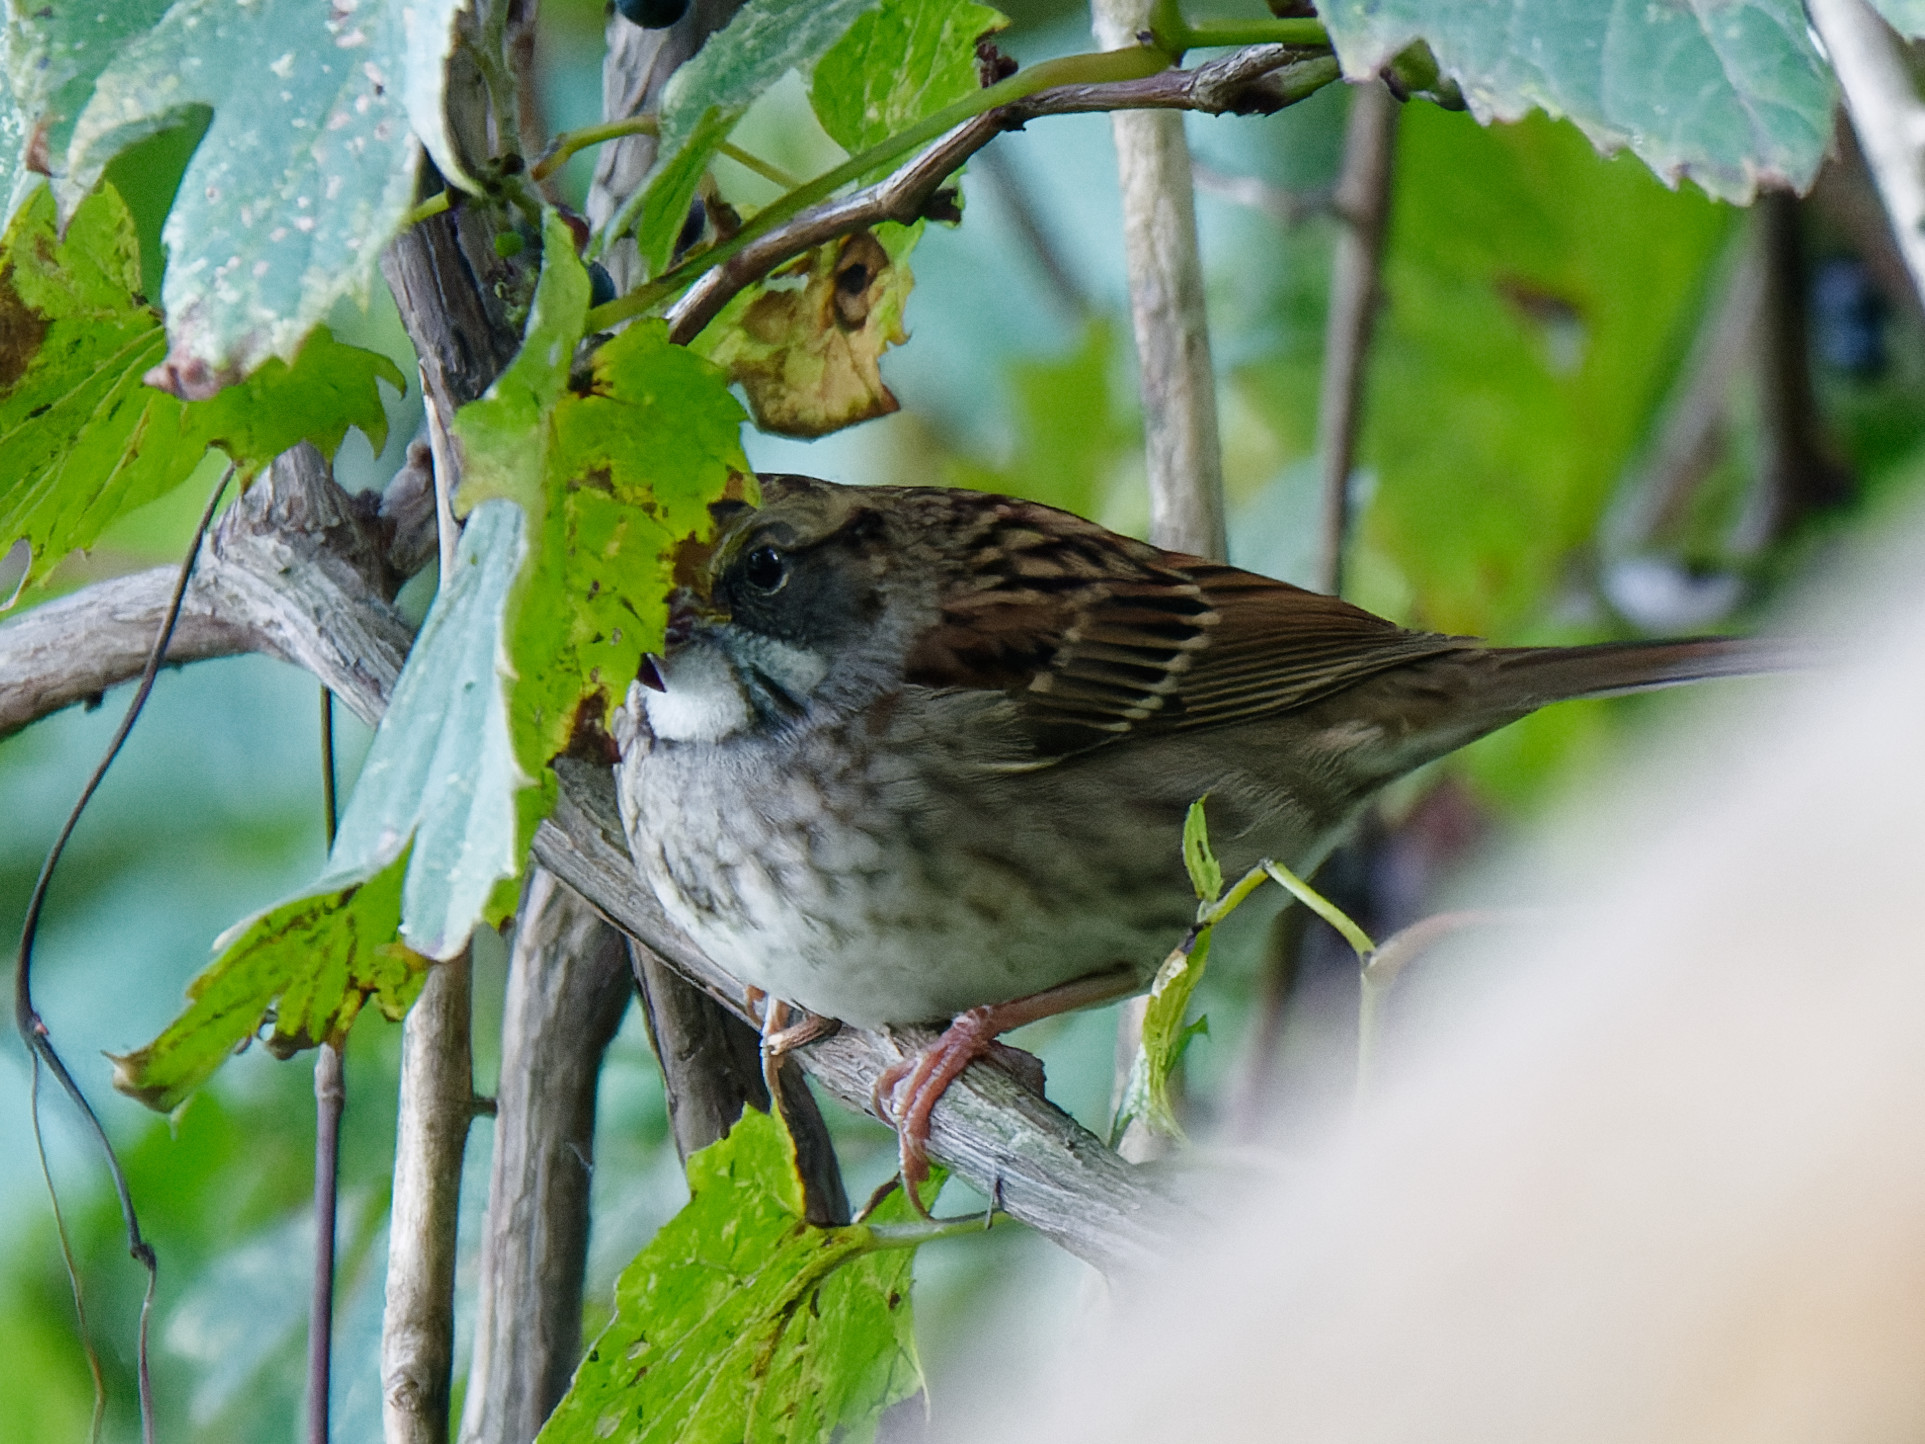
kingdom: Animalia
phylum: Chordata
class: Aves
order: Passeriformes
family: Passerellidae
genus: Zonotrichia
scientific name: Zonotrichia albicollis
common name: White-throated sparrow
